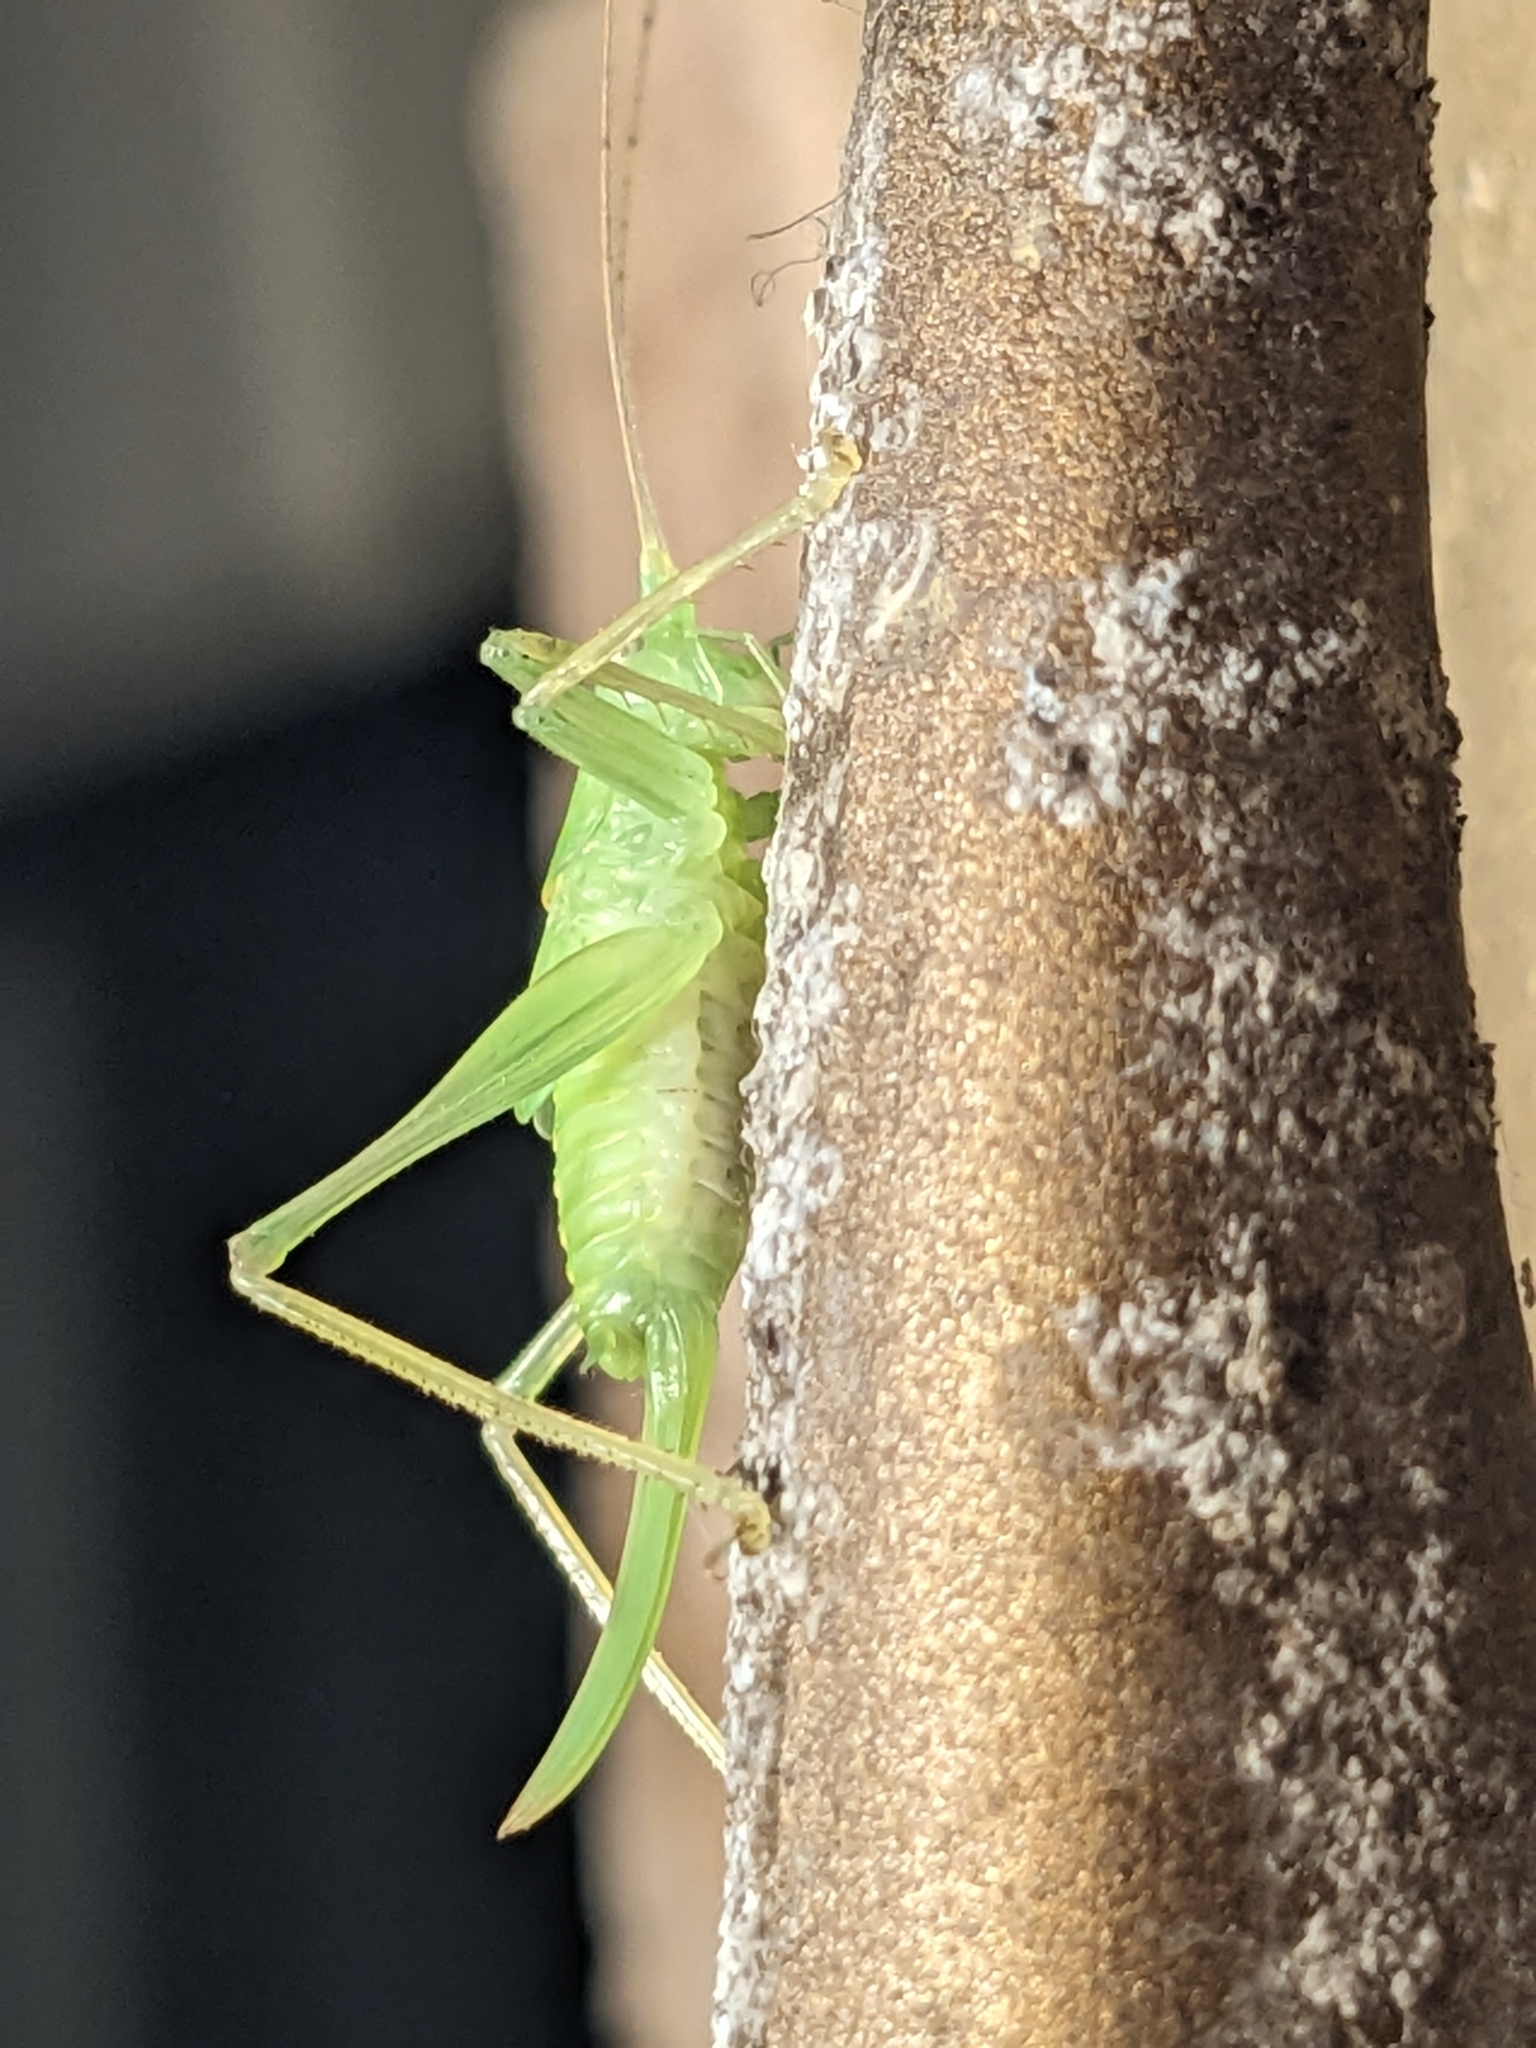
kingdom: Animalia
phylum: Arthropoda
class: Insecta
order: Orthoptera
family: Tettigoniidae
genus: Meconema
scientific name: Meconema thalassinum
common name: Oak bush-cricket
